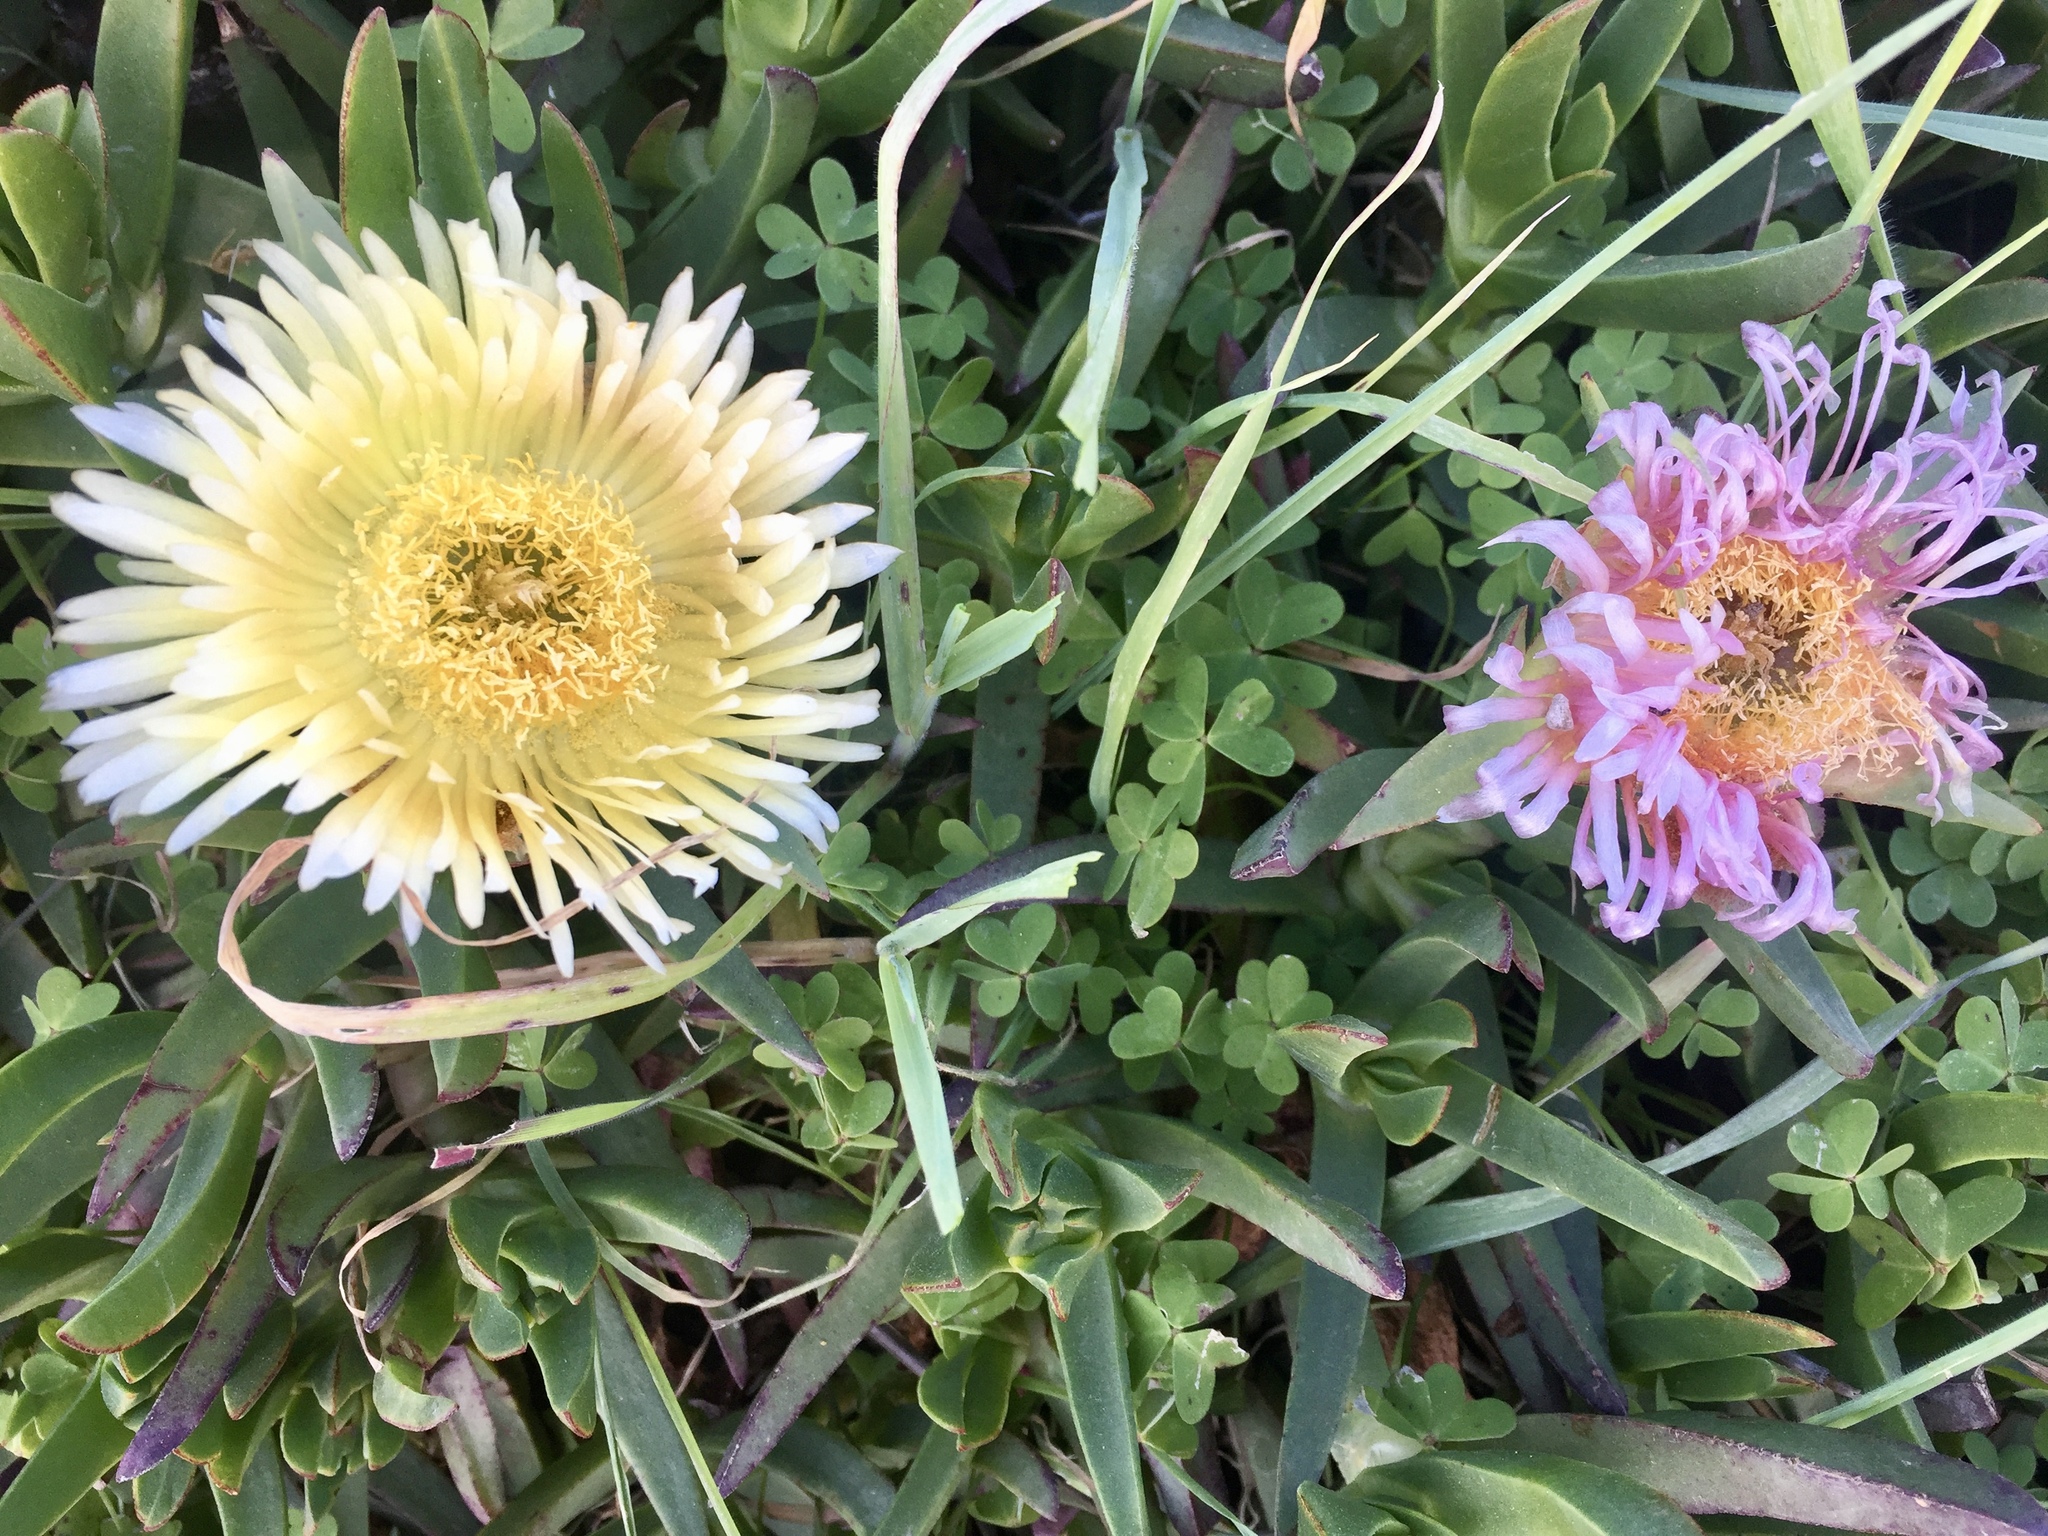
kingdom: Plantae
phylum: Tracheophyta
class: Magnoliopsida
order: Caryophyllales
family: Aizoaceae
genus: Carpobrotus
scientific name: Carpobrotus edulis
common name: Hottentot-fig
